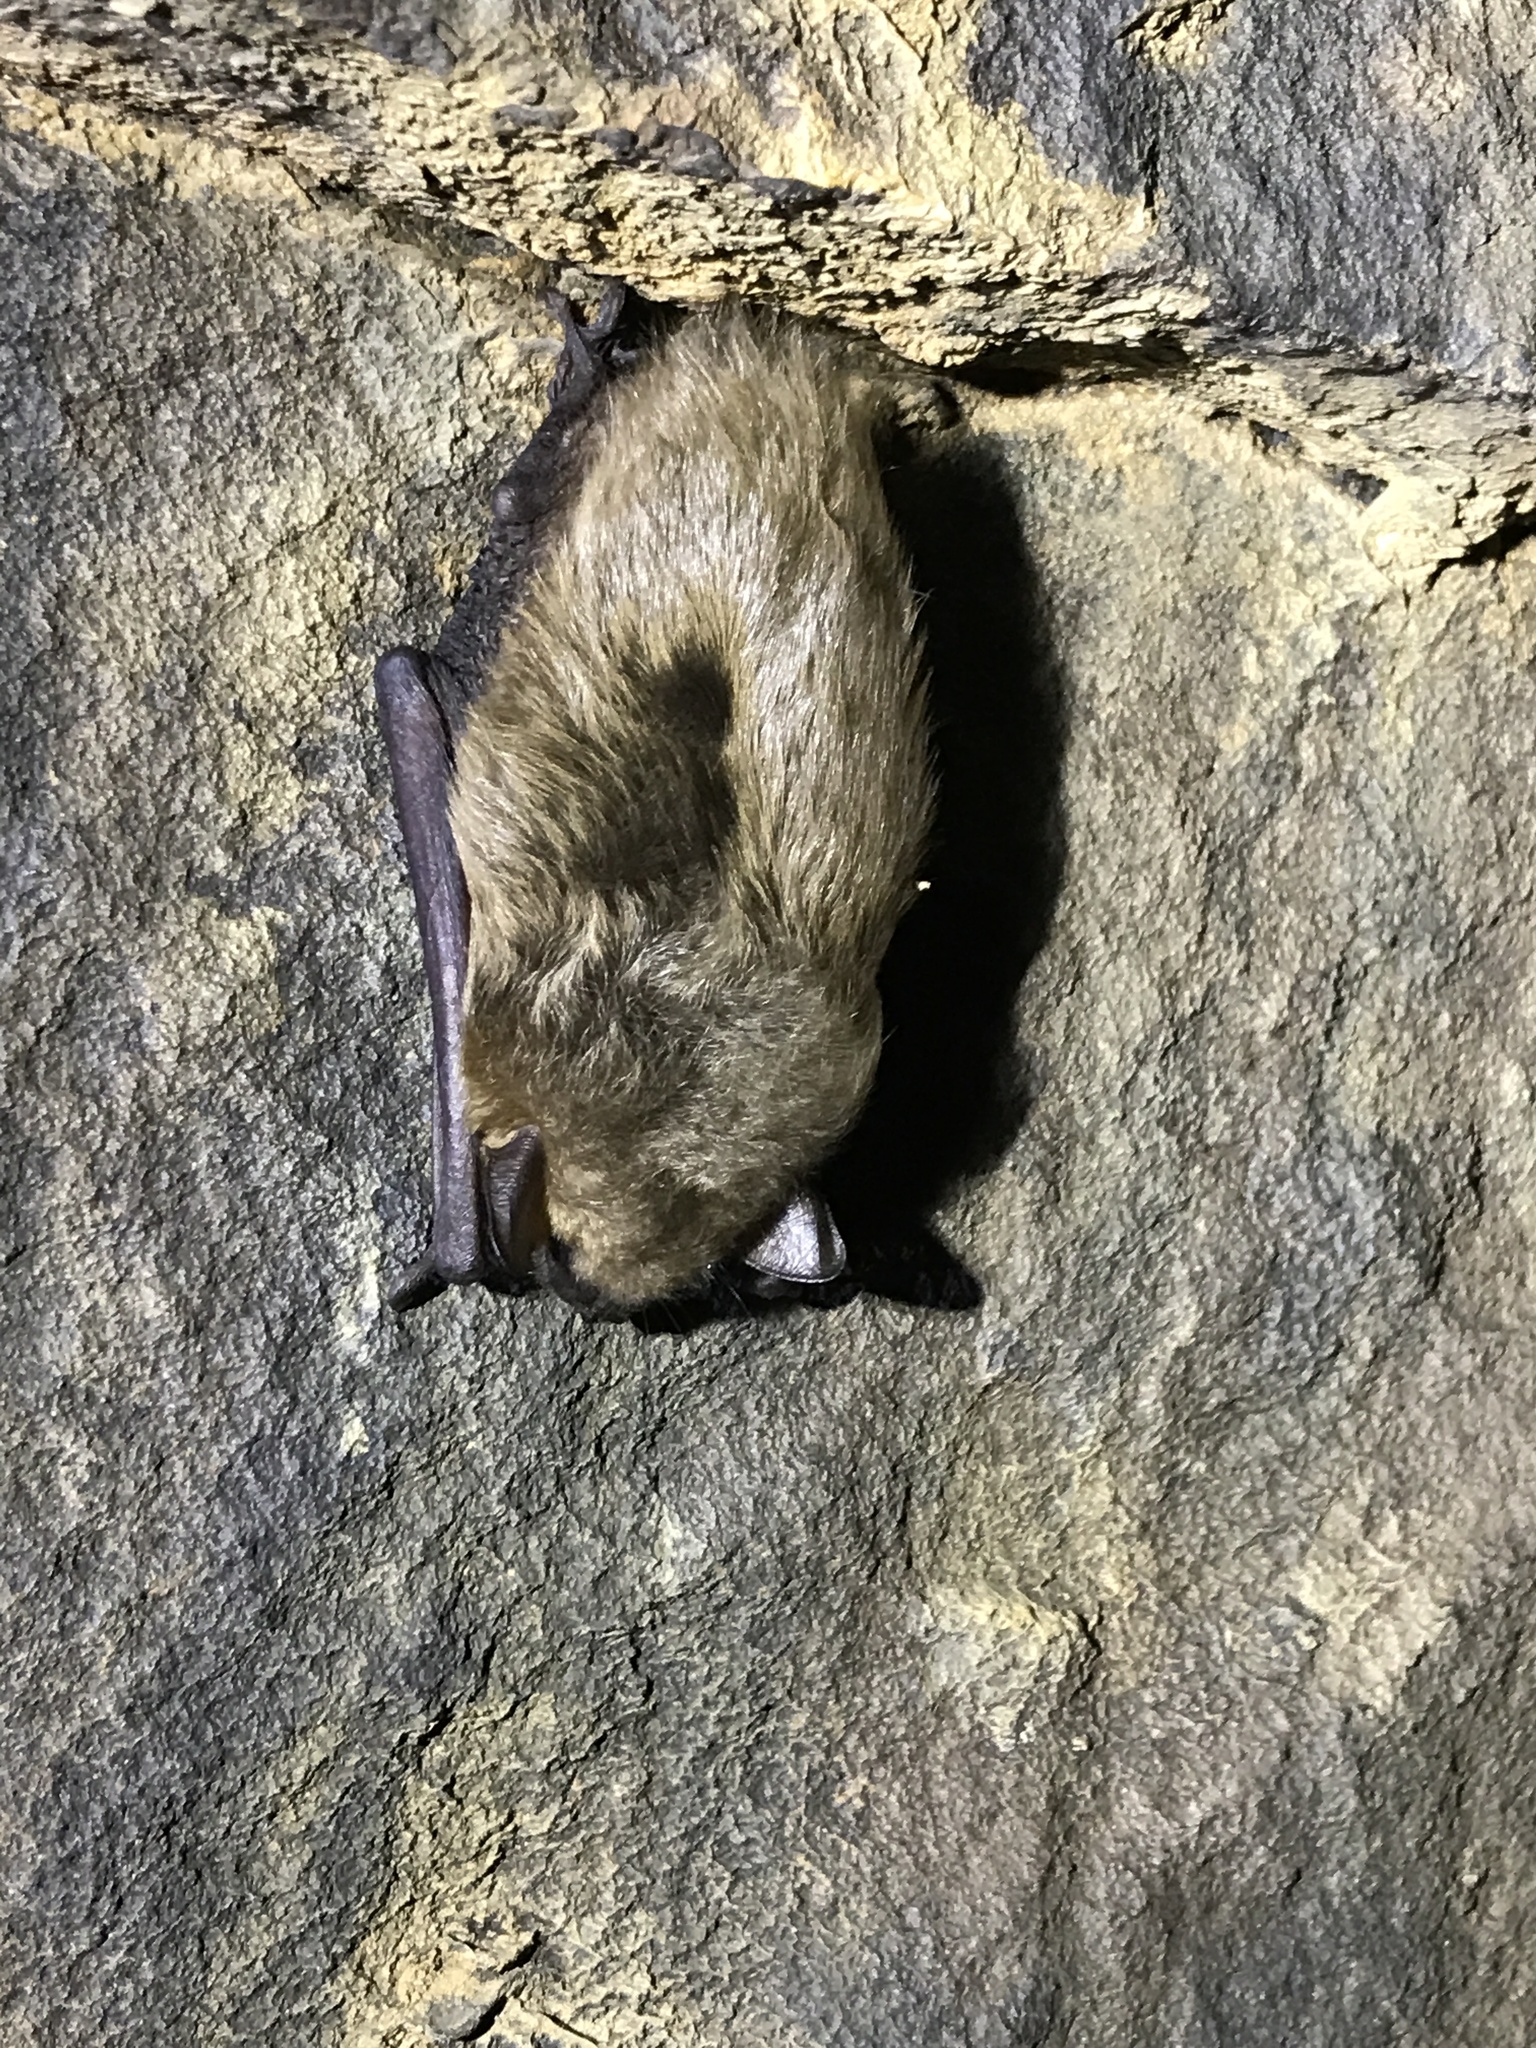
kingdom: Animalia
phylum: Chordata
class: Mammalia
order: Chiroptera
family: Vespertilionidae
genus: Eptesicus
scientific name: Eptesicus fuscus
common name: Big brown bat
